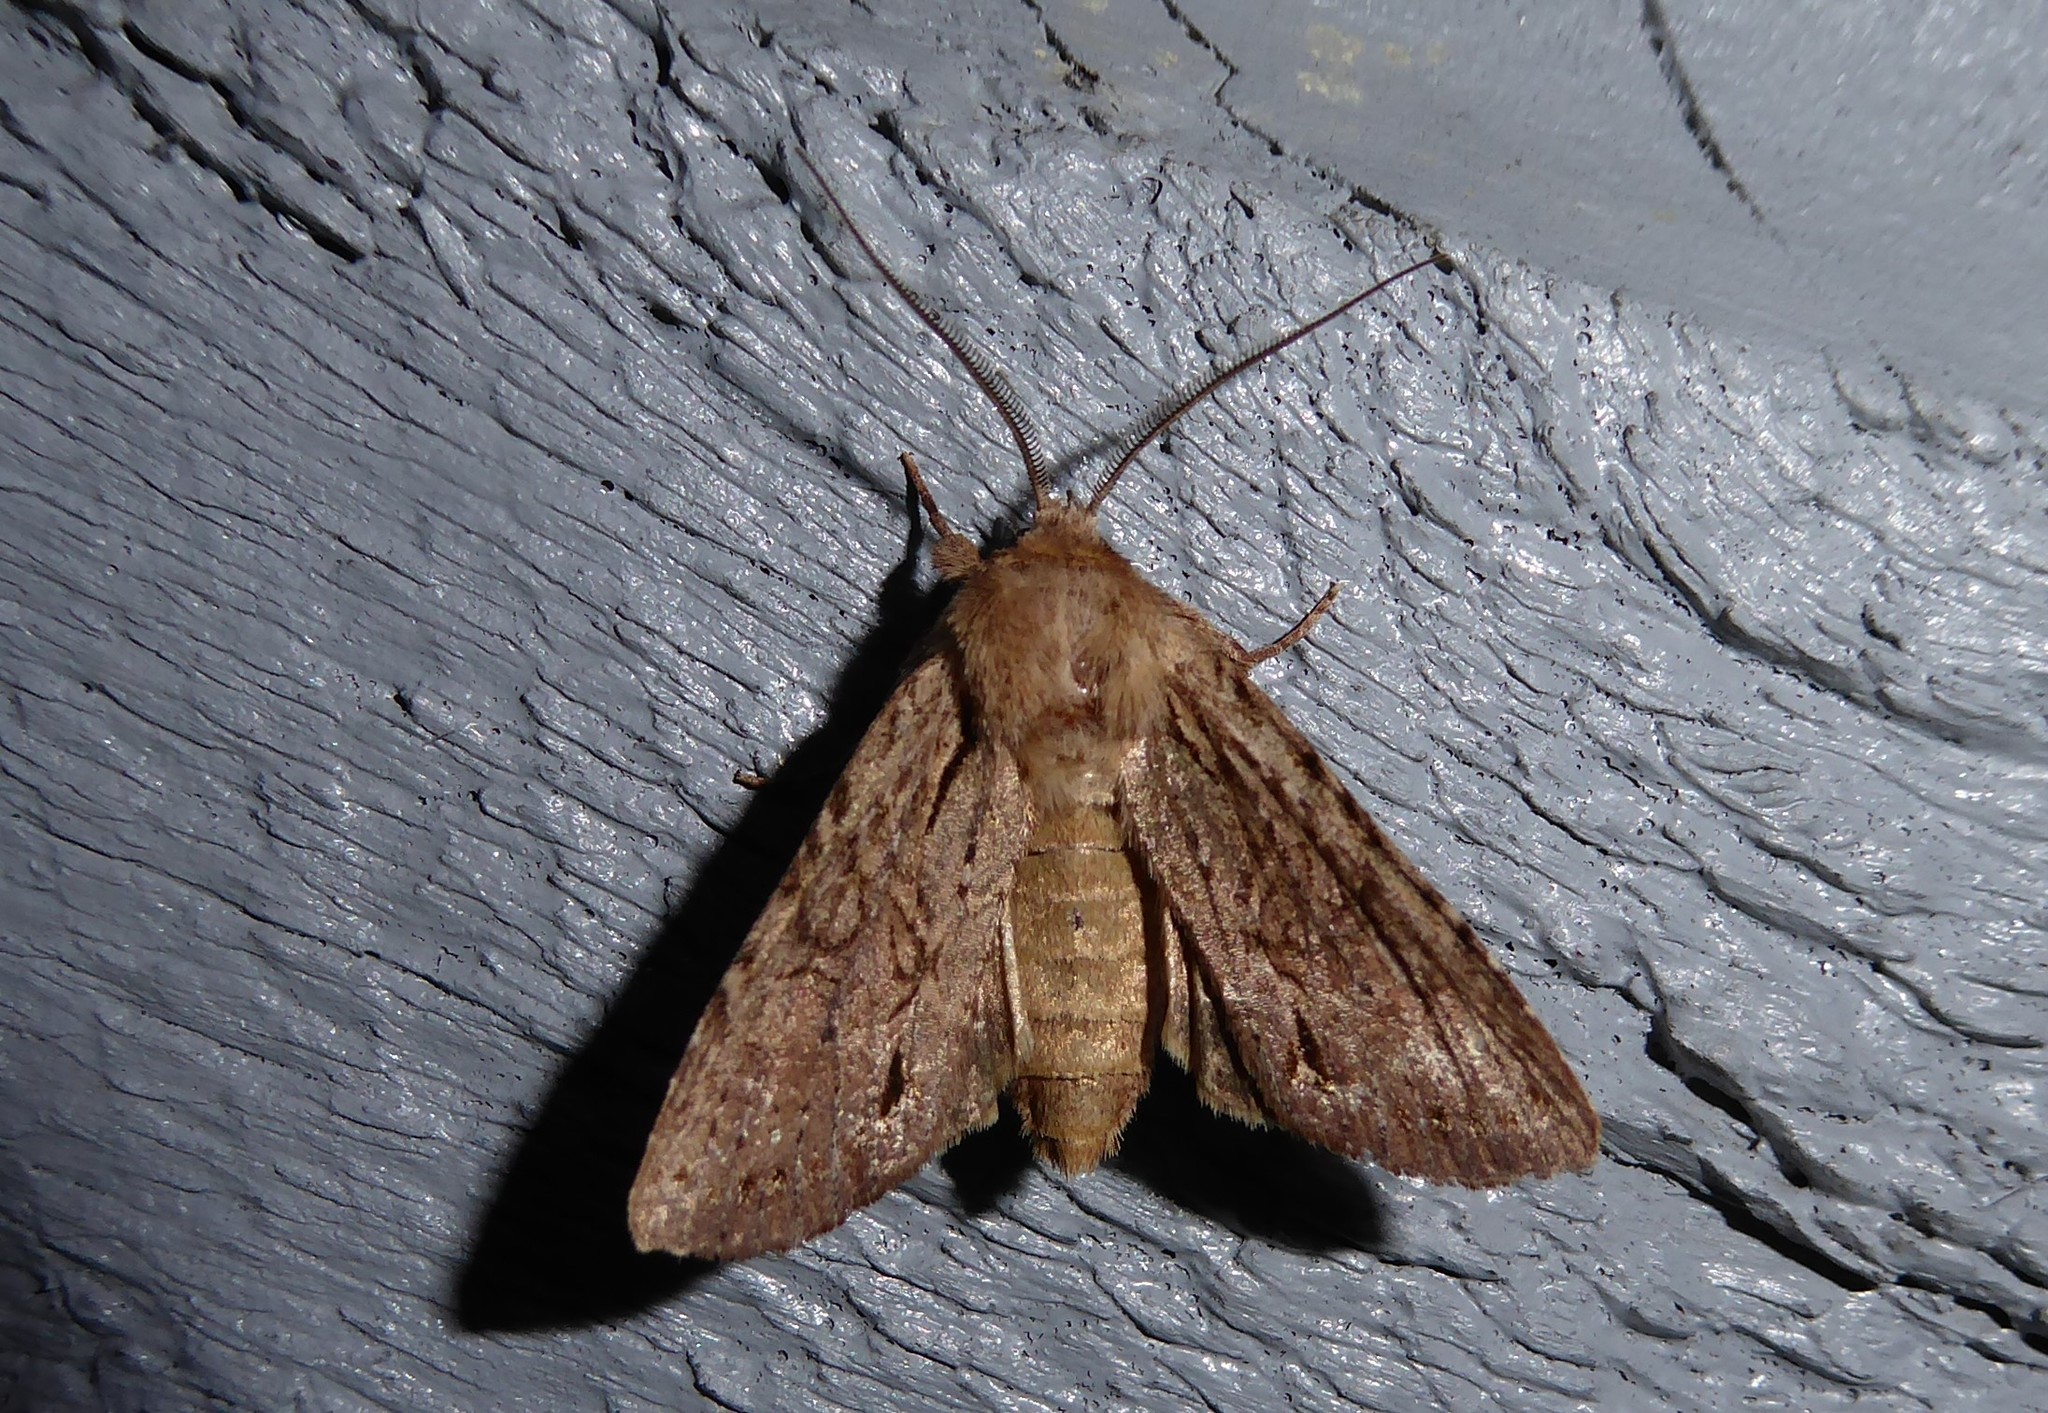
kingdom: Animalia
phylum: Arthropoda
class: Insecta
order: Lepidoptera
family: Noctuidae
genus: Ichneutica
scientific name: Ichneutica
